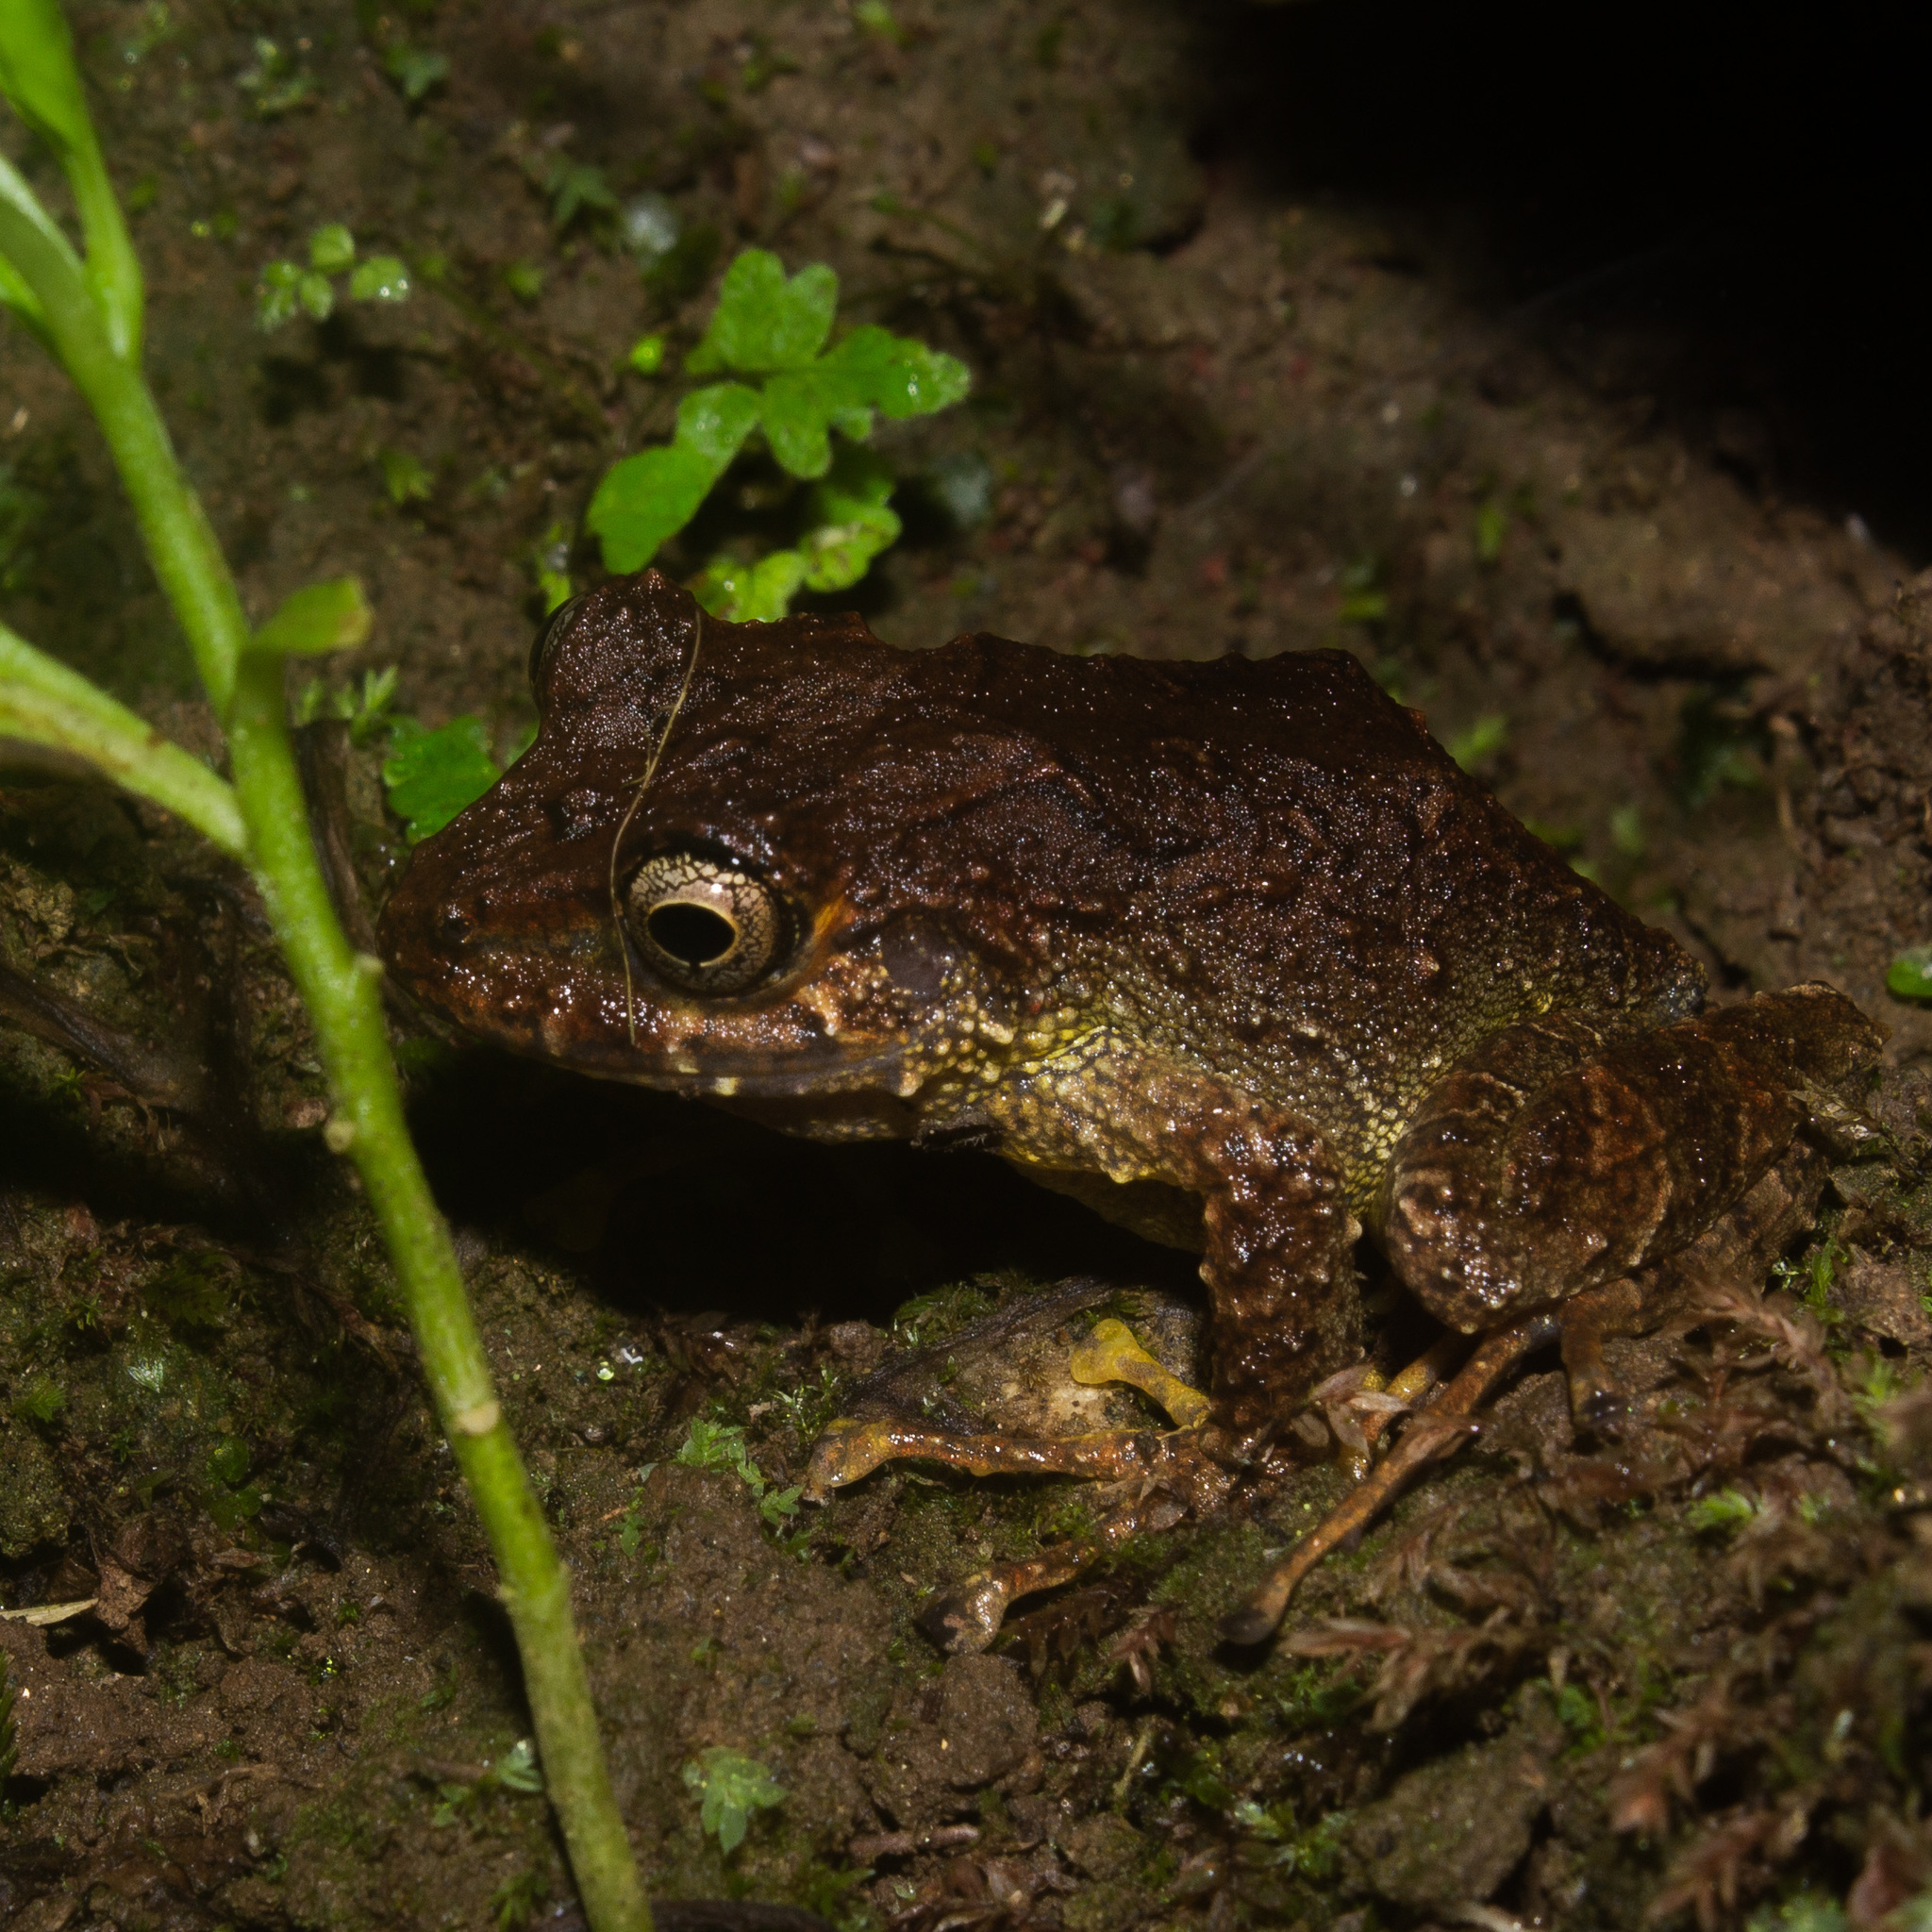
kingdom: Animalia
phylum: Chordata
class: Amphibia
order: Anura
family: Craugastoridae
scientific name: Craugastoridae
